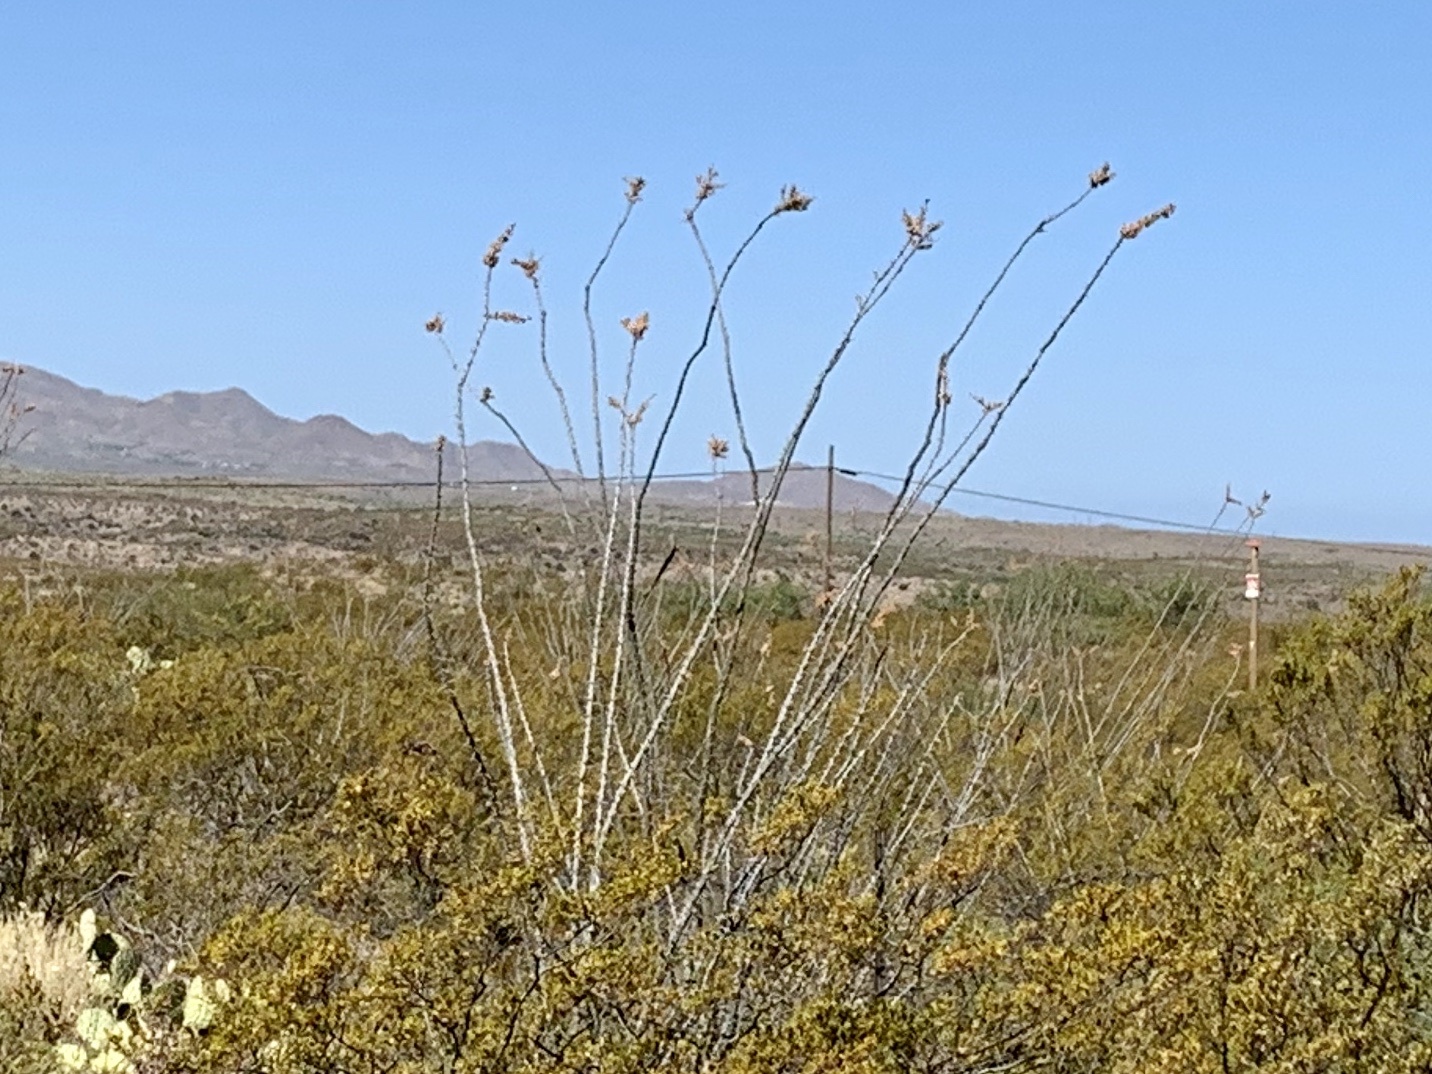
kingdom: Plantae
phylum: Tracheophyta
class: Magnoliopsida
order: Ericales
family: Fouquieriaceae
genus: Fouquieria
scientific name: Fouquieria splendens
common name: Vine-cactus
